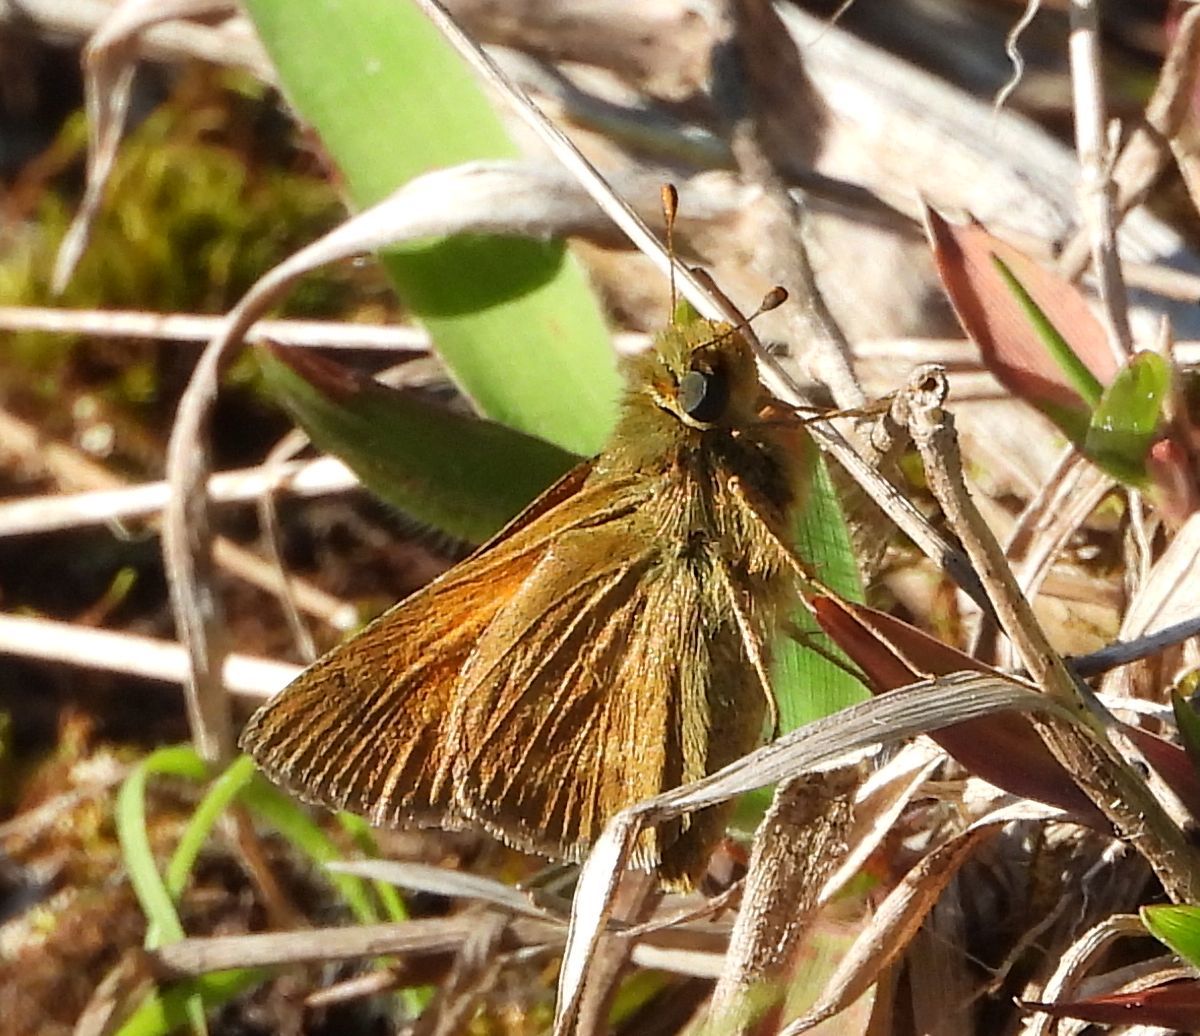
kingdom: Animalia
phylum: Arthropoda
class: Insecta
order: Lepidoptera
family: Hesperiidae
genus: Hesperia
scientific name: Hesperia sassacus
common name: Indian skipper
